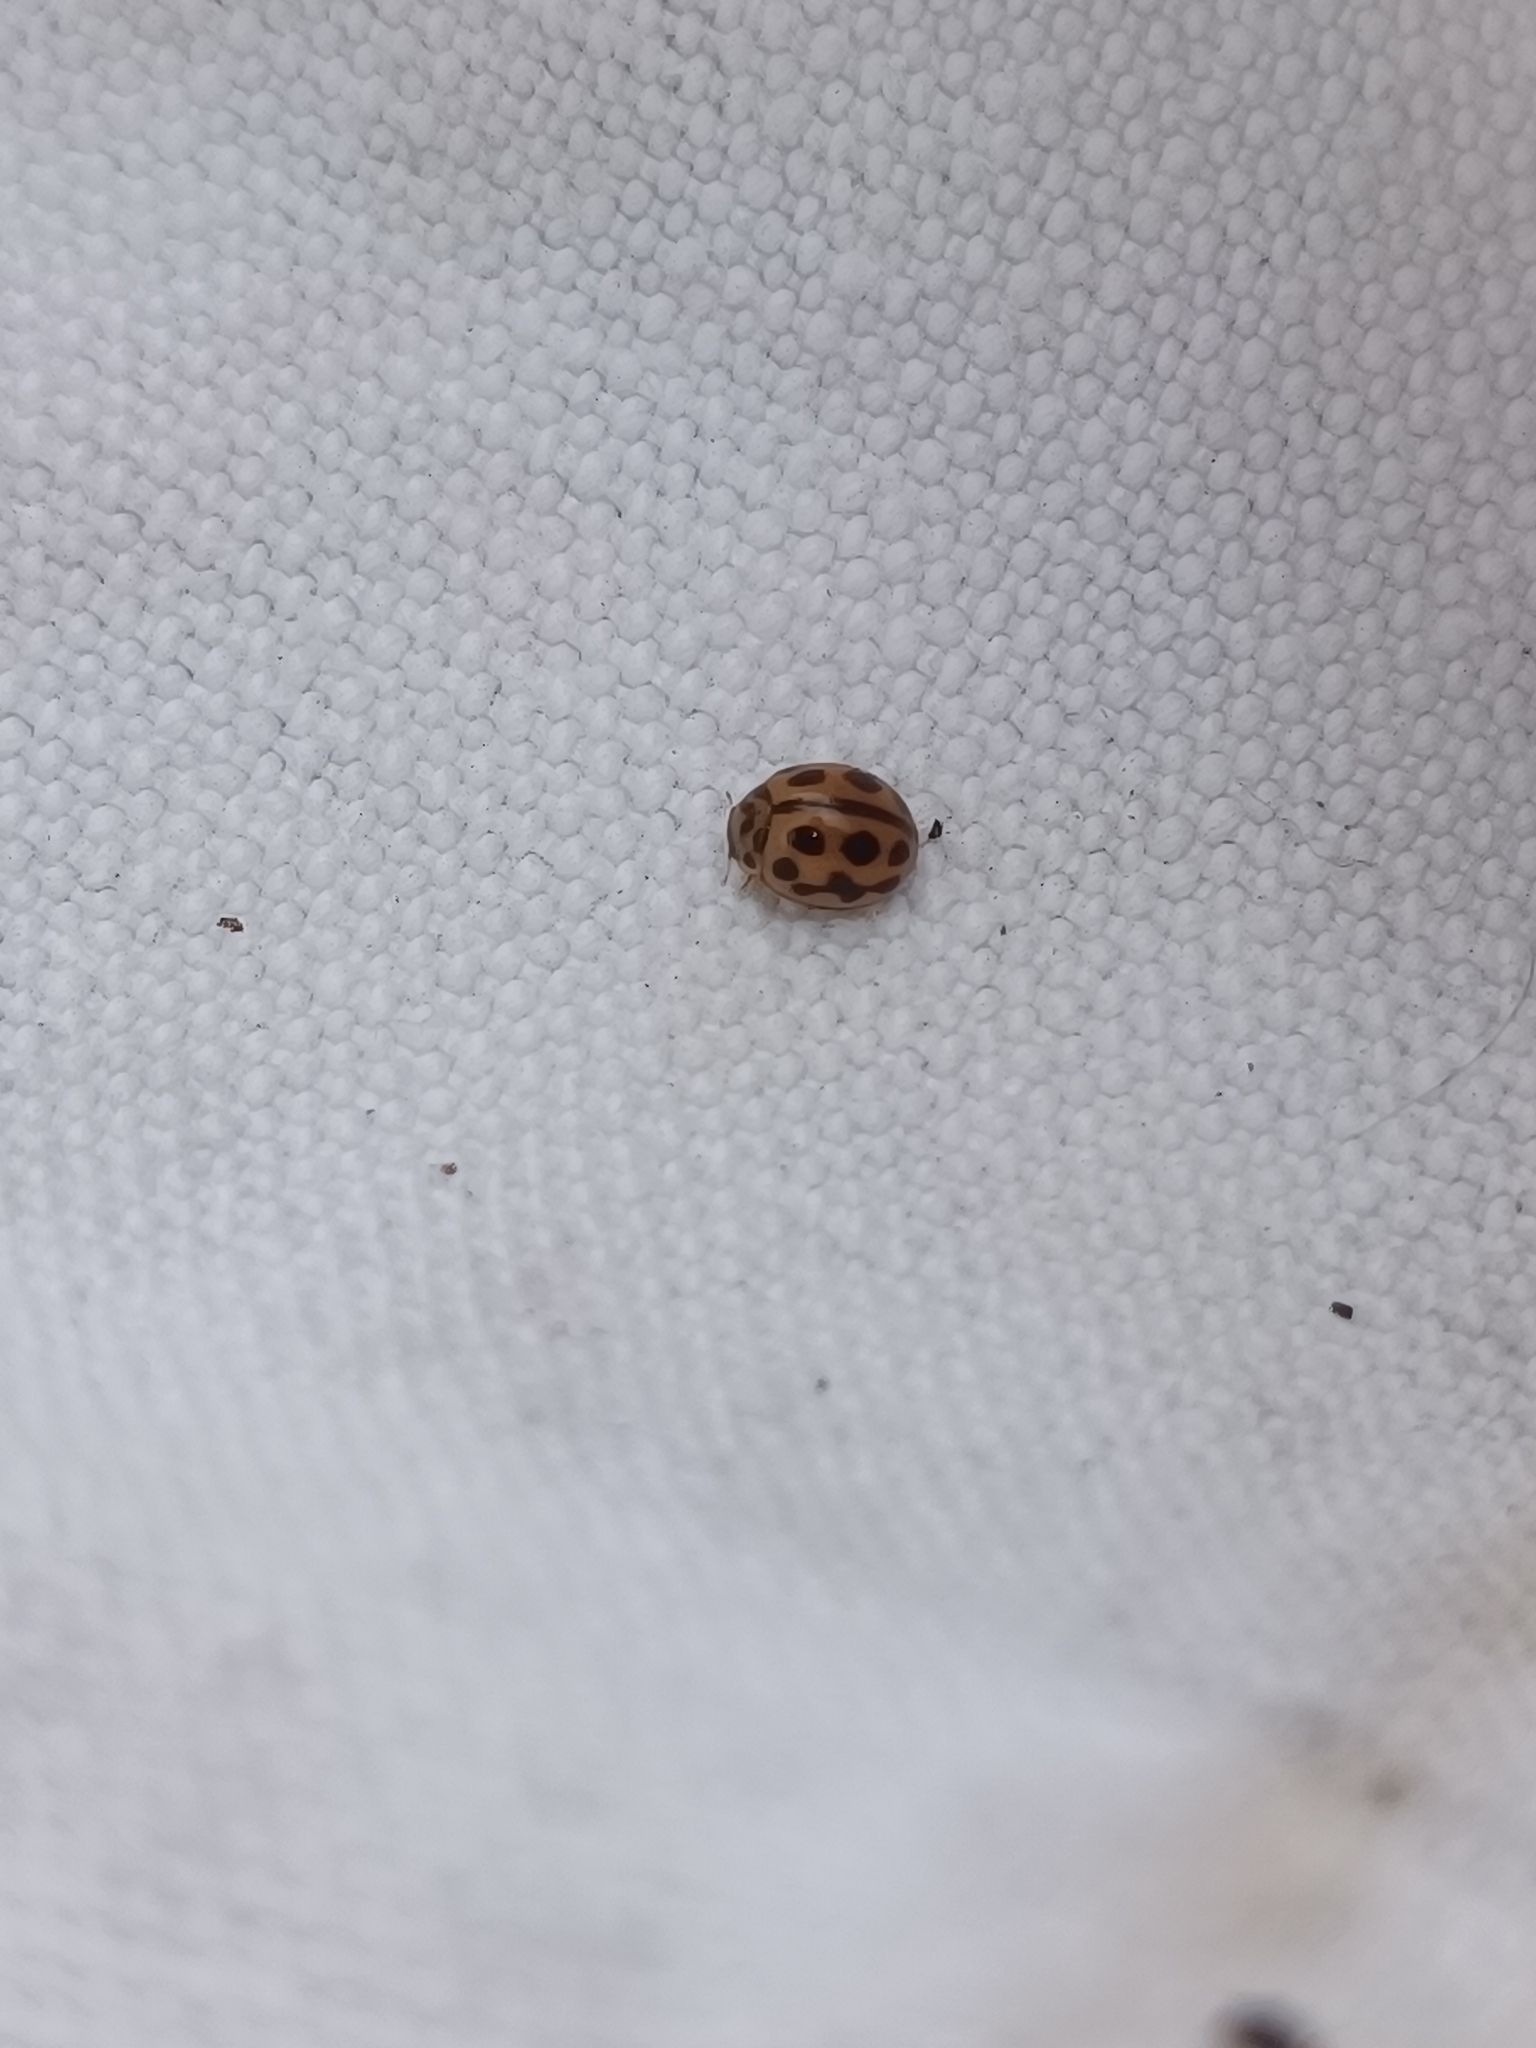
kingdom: Animalia
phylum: Arthropoda
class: Insecta
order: Coleoptera
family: Coccinellidae
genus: Tytthaspis
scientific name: Tytthaspis sedecimpunctata
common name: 16-spot ladybird
